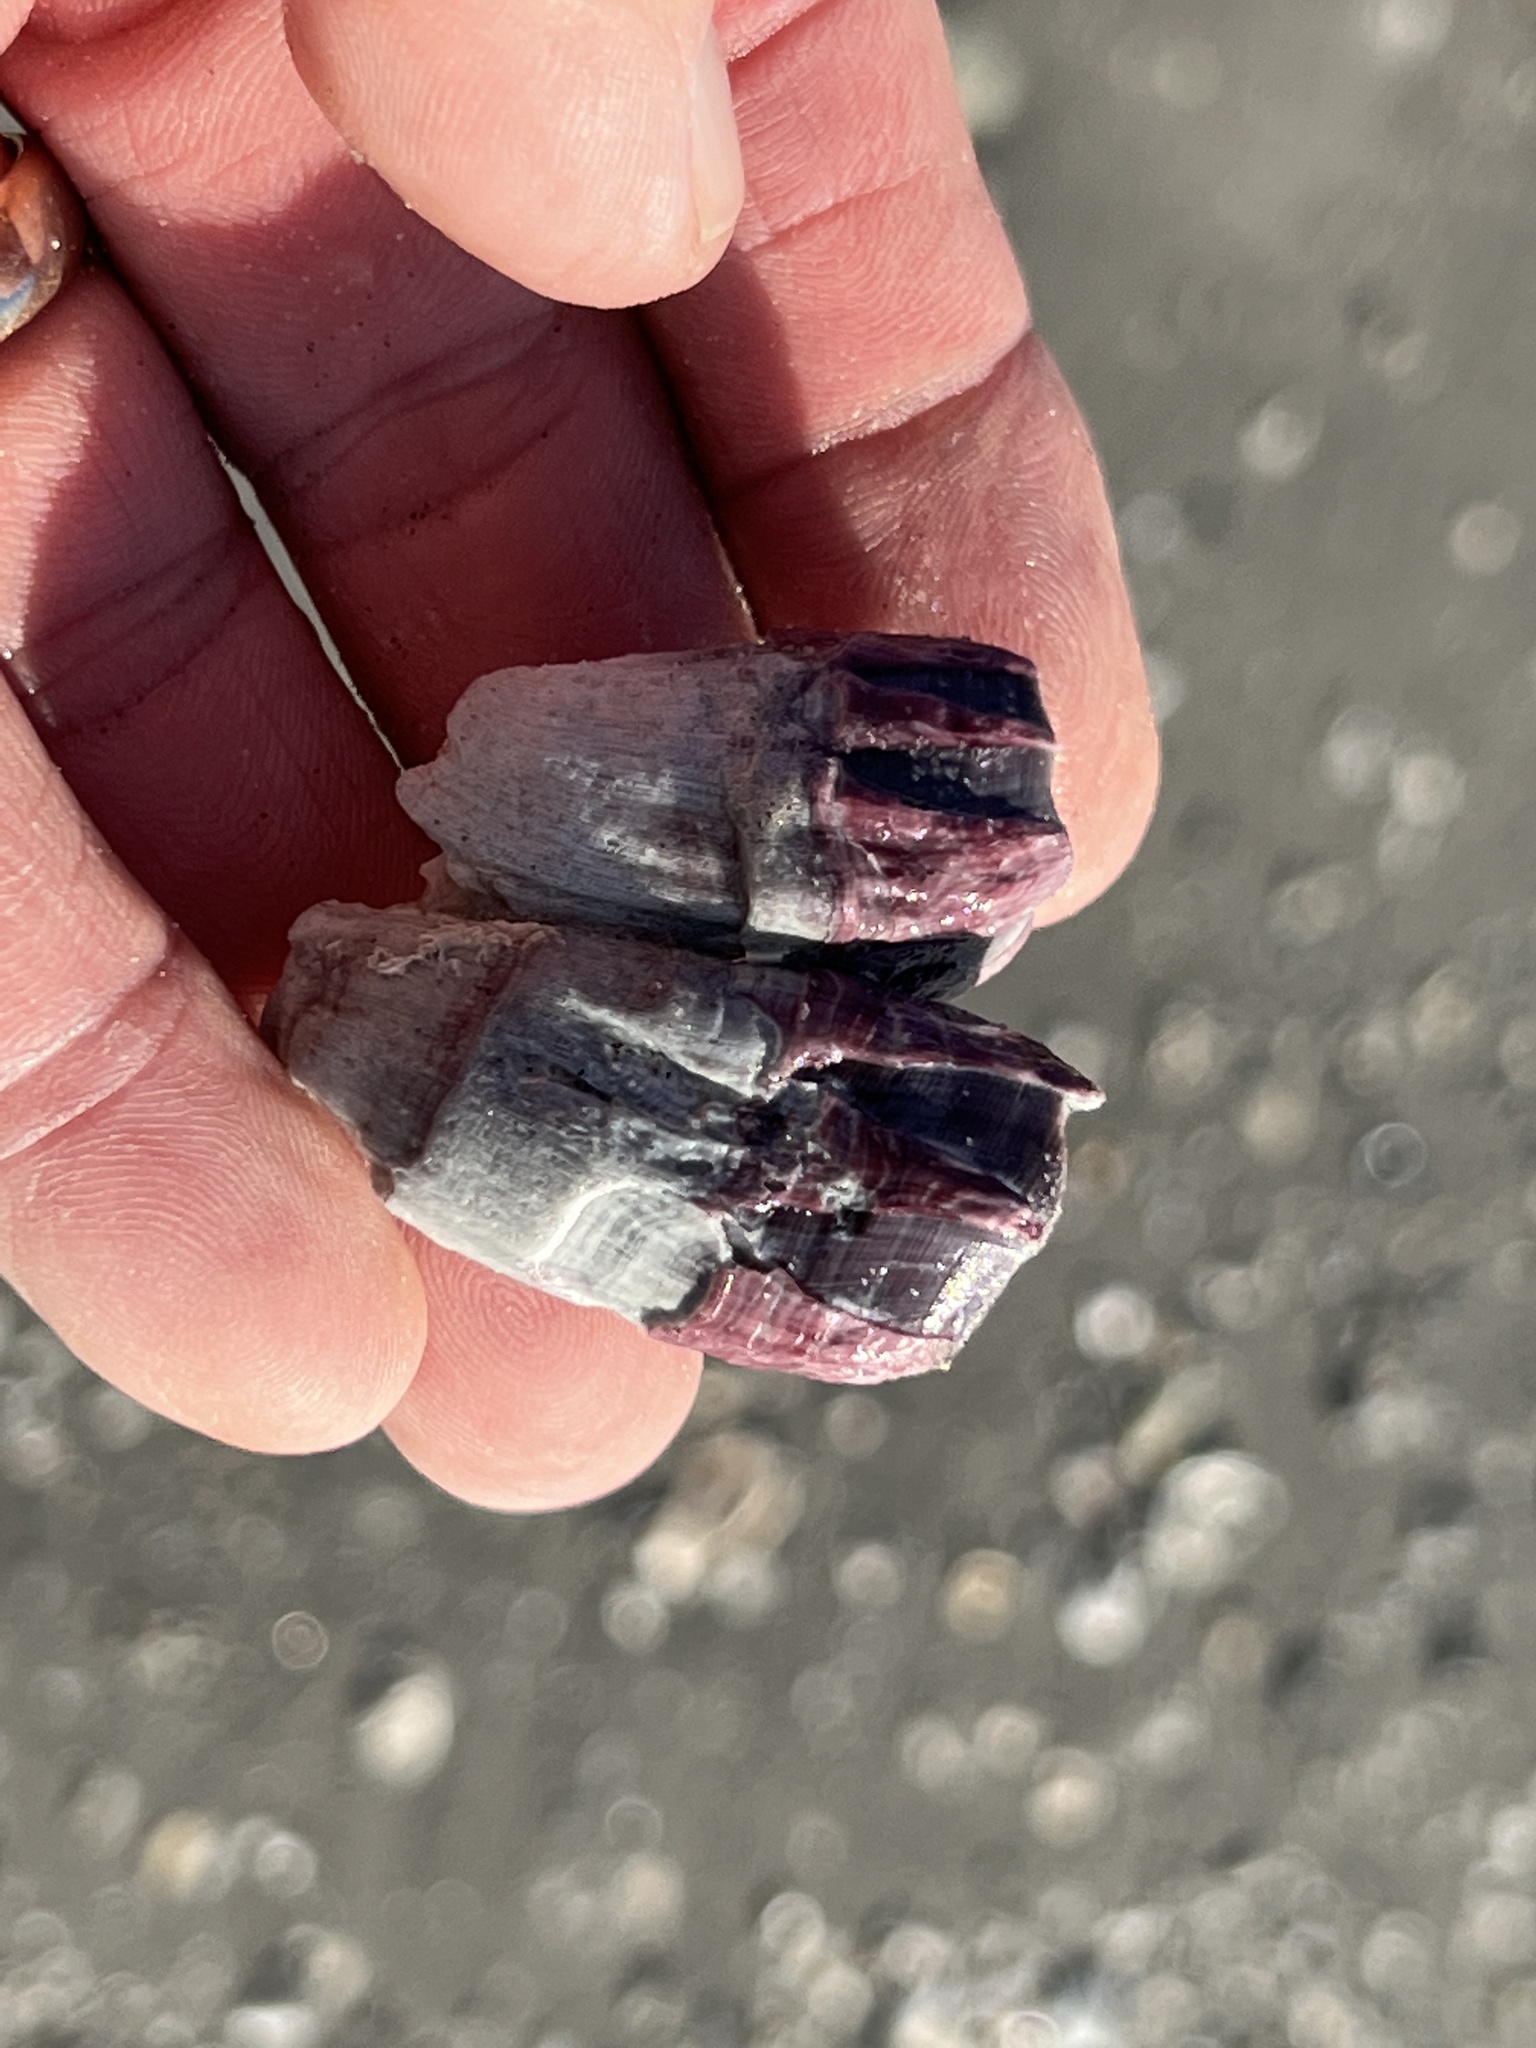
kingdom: Animalia
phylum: Arthropoda
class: Maxillopoda
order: Sessilia
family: Balanidae
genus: Megabalanus
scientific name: Megabalanus tintinnabulum
